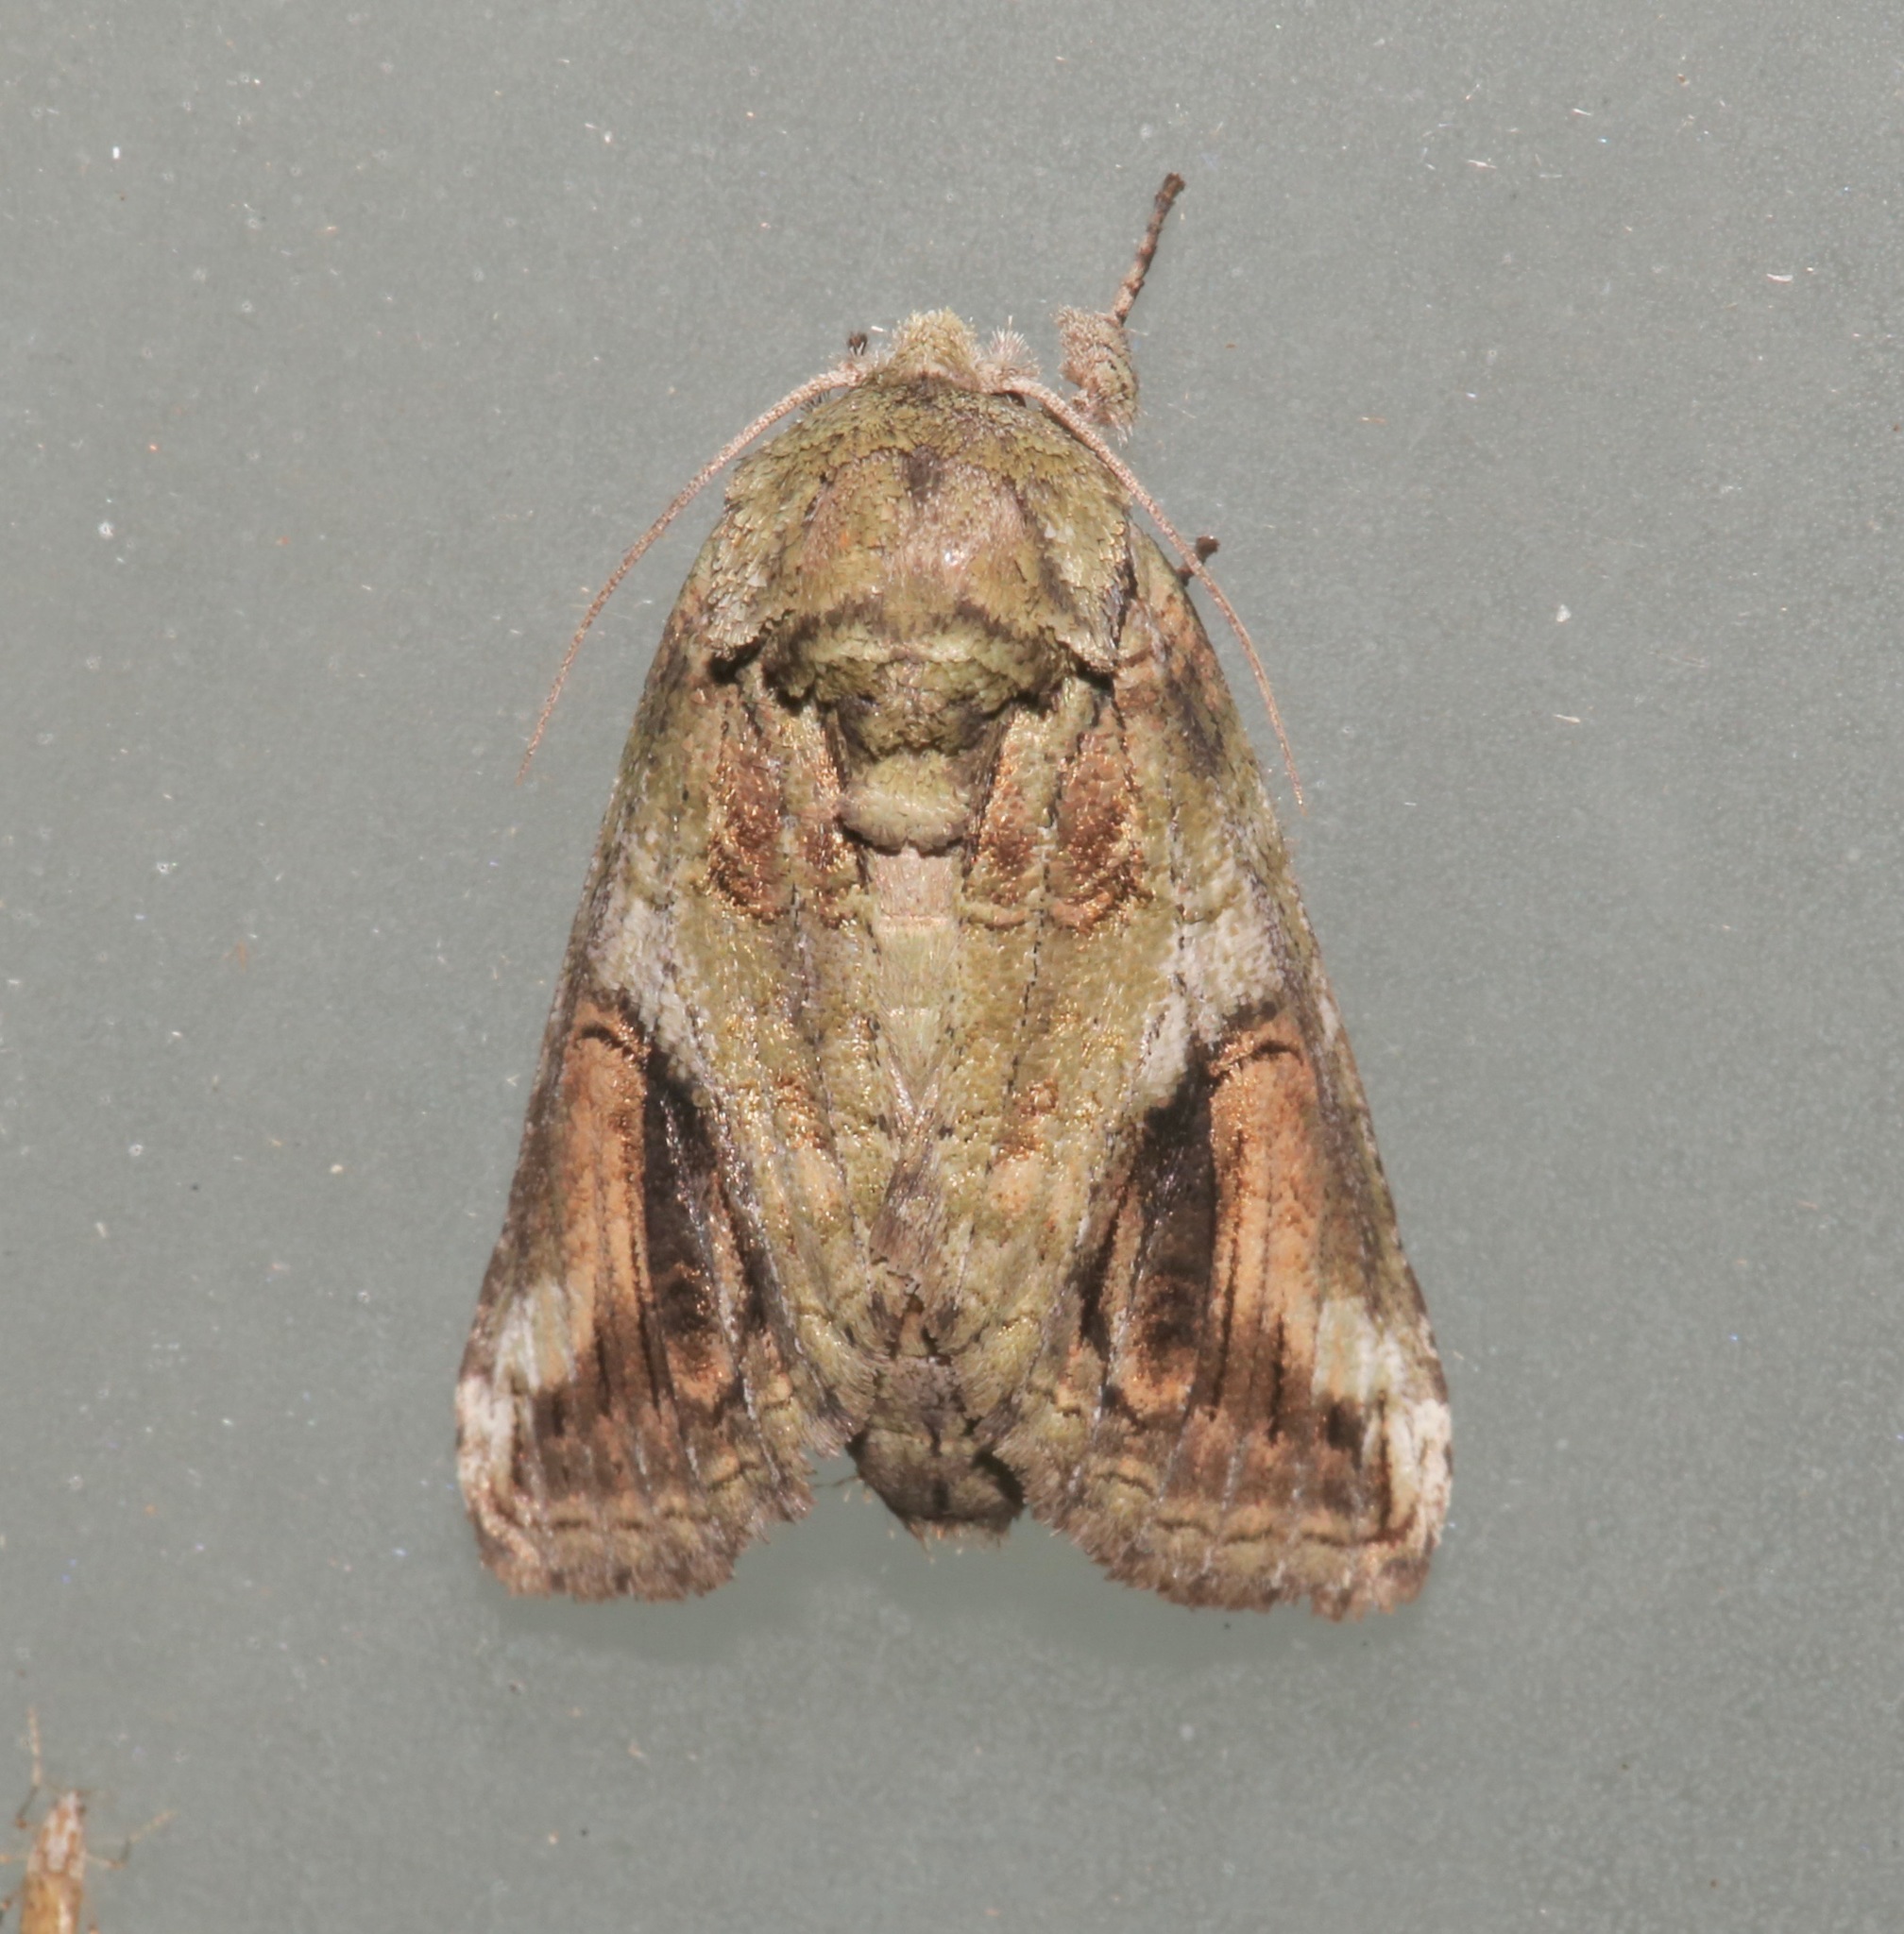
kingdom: Animalia
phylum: Arthropoda
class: Insecta
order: Lepidoptera
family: Notodontidae
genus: Heterocampa
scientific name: Heterocampa obliqua
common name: Oblique heterocampa
